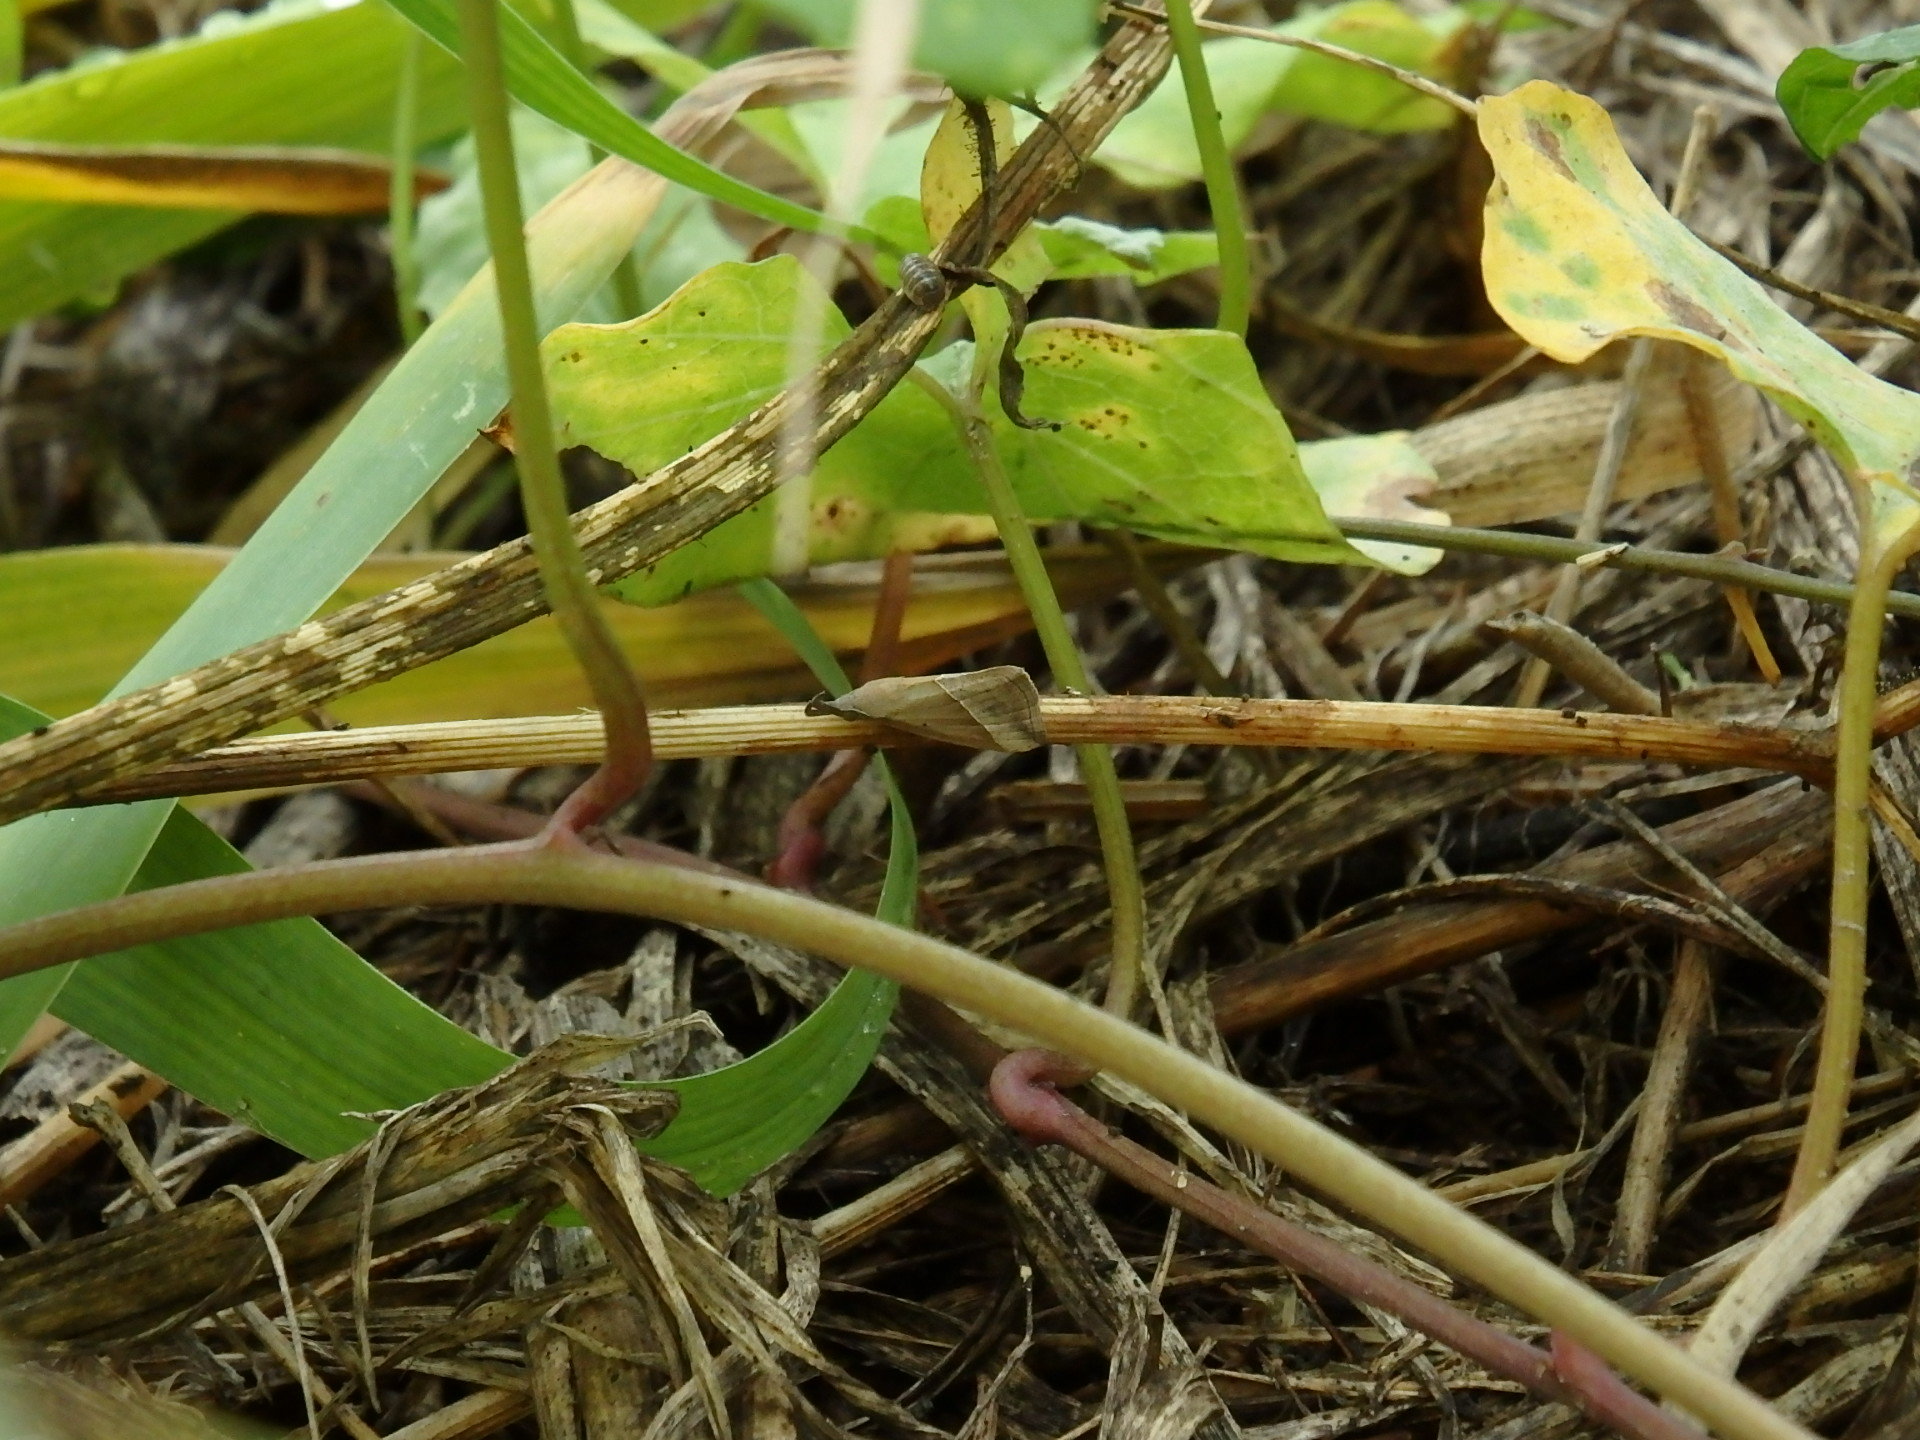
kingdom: Animalia
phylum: Arthropoda
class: Insecta
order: Lepidoptera
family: Erebidae
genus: Hypena
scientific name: Hypena lividalis
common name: Chevron snout
